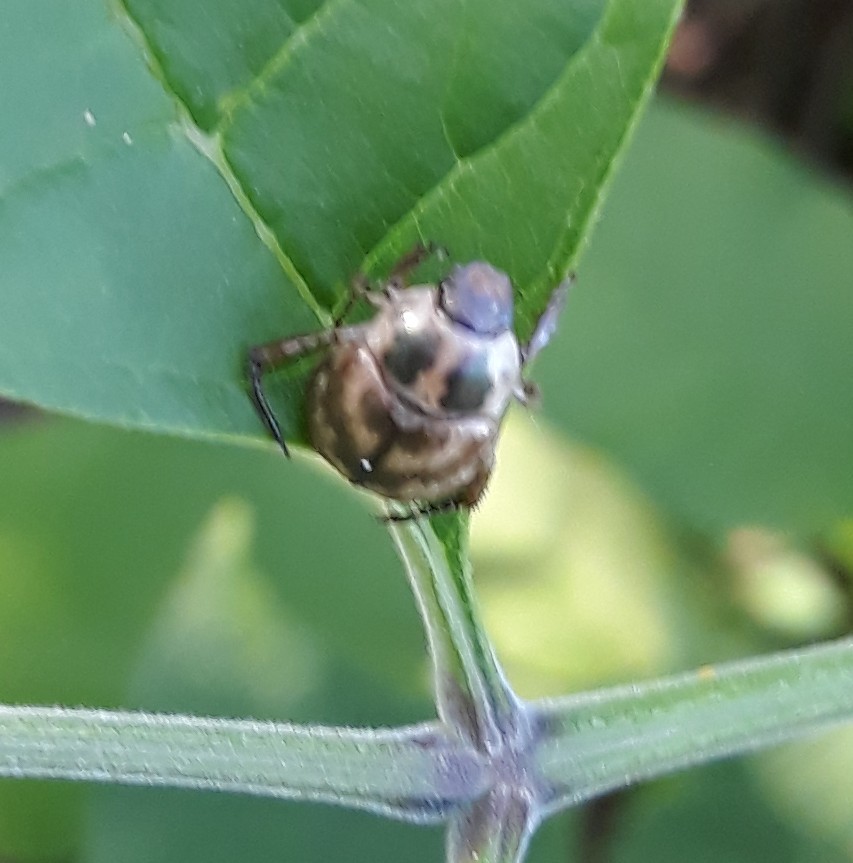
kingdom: Animalia
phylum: Arthropoda
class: Insecta
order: Coleoptera
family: Scarabaeidae
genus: Exomala
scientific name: Exomala orientalis
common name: Oriental beetle
